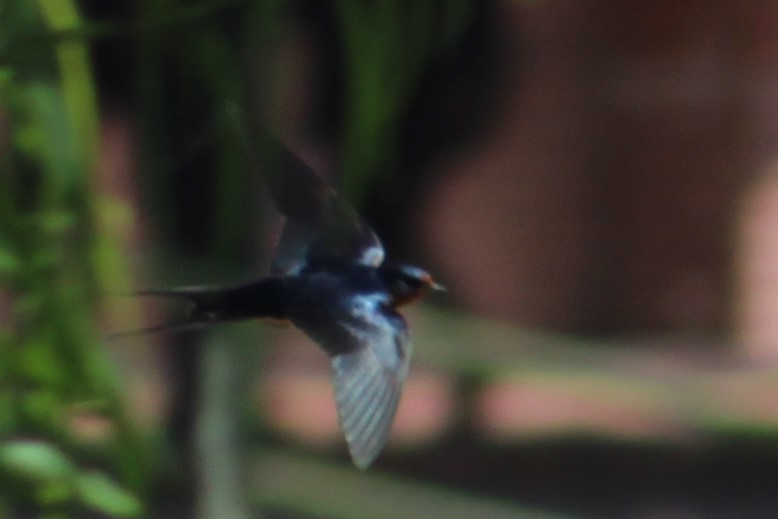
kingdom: Animalia
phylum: Chordata
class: Aves
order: Passeriformes
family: Hirundinidae
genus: Hirundo
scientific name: Hirundo rustica
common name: Barn swallow
